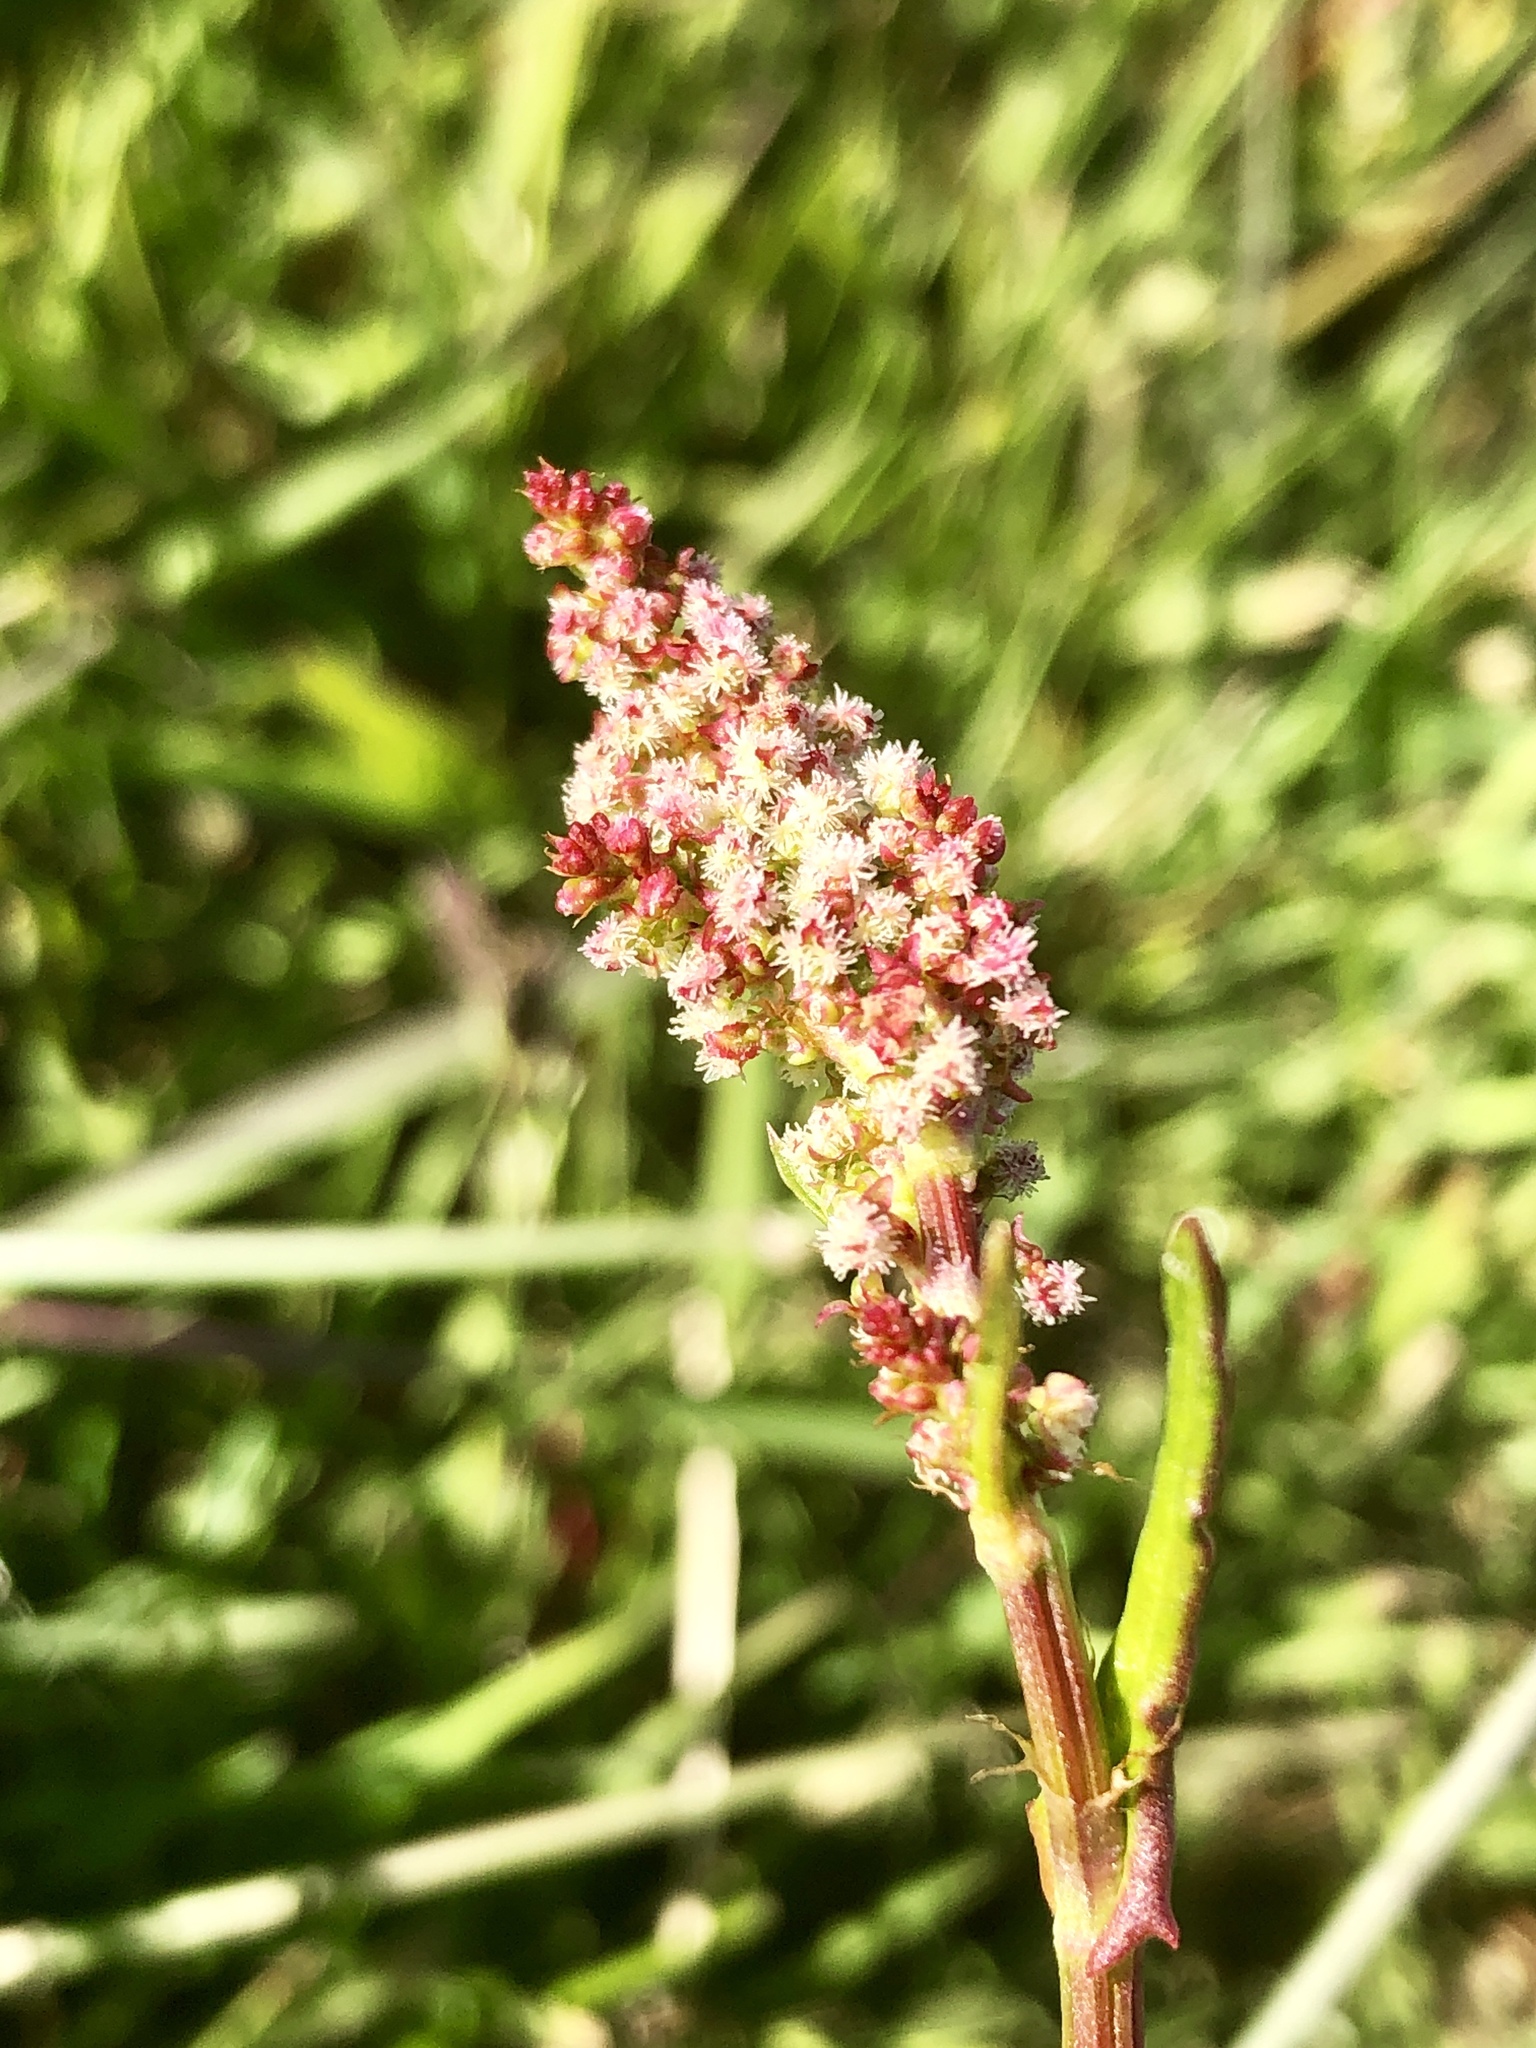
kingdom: Plantae
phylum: Tracheophyta
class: Magnoliopsida
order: Caryophyllales
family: Polygonaceae
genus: Rumex
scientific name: Rumex acetosa
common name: Garden sorrel
